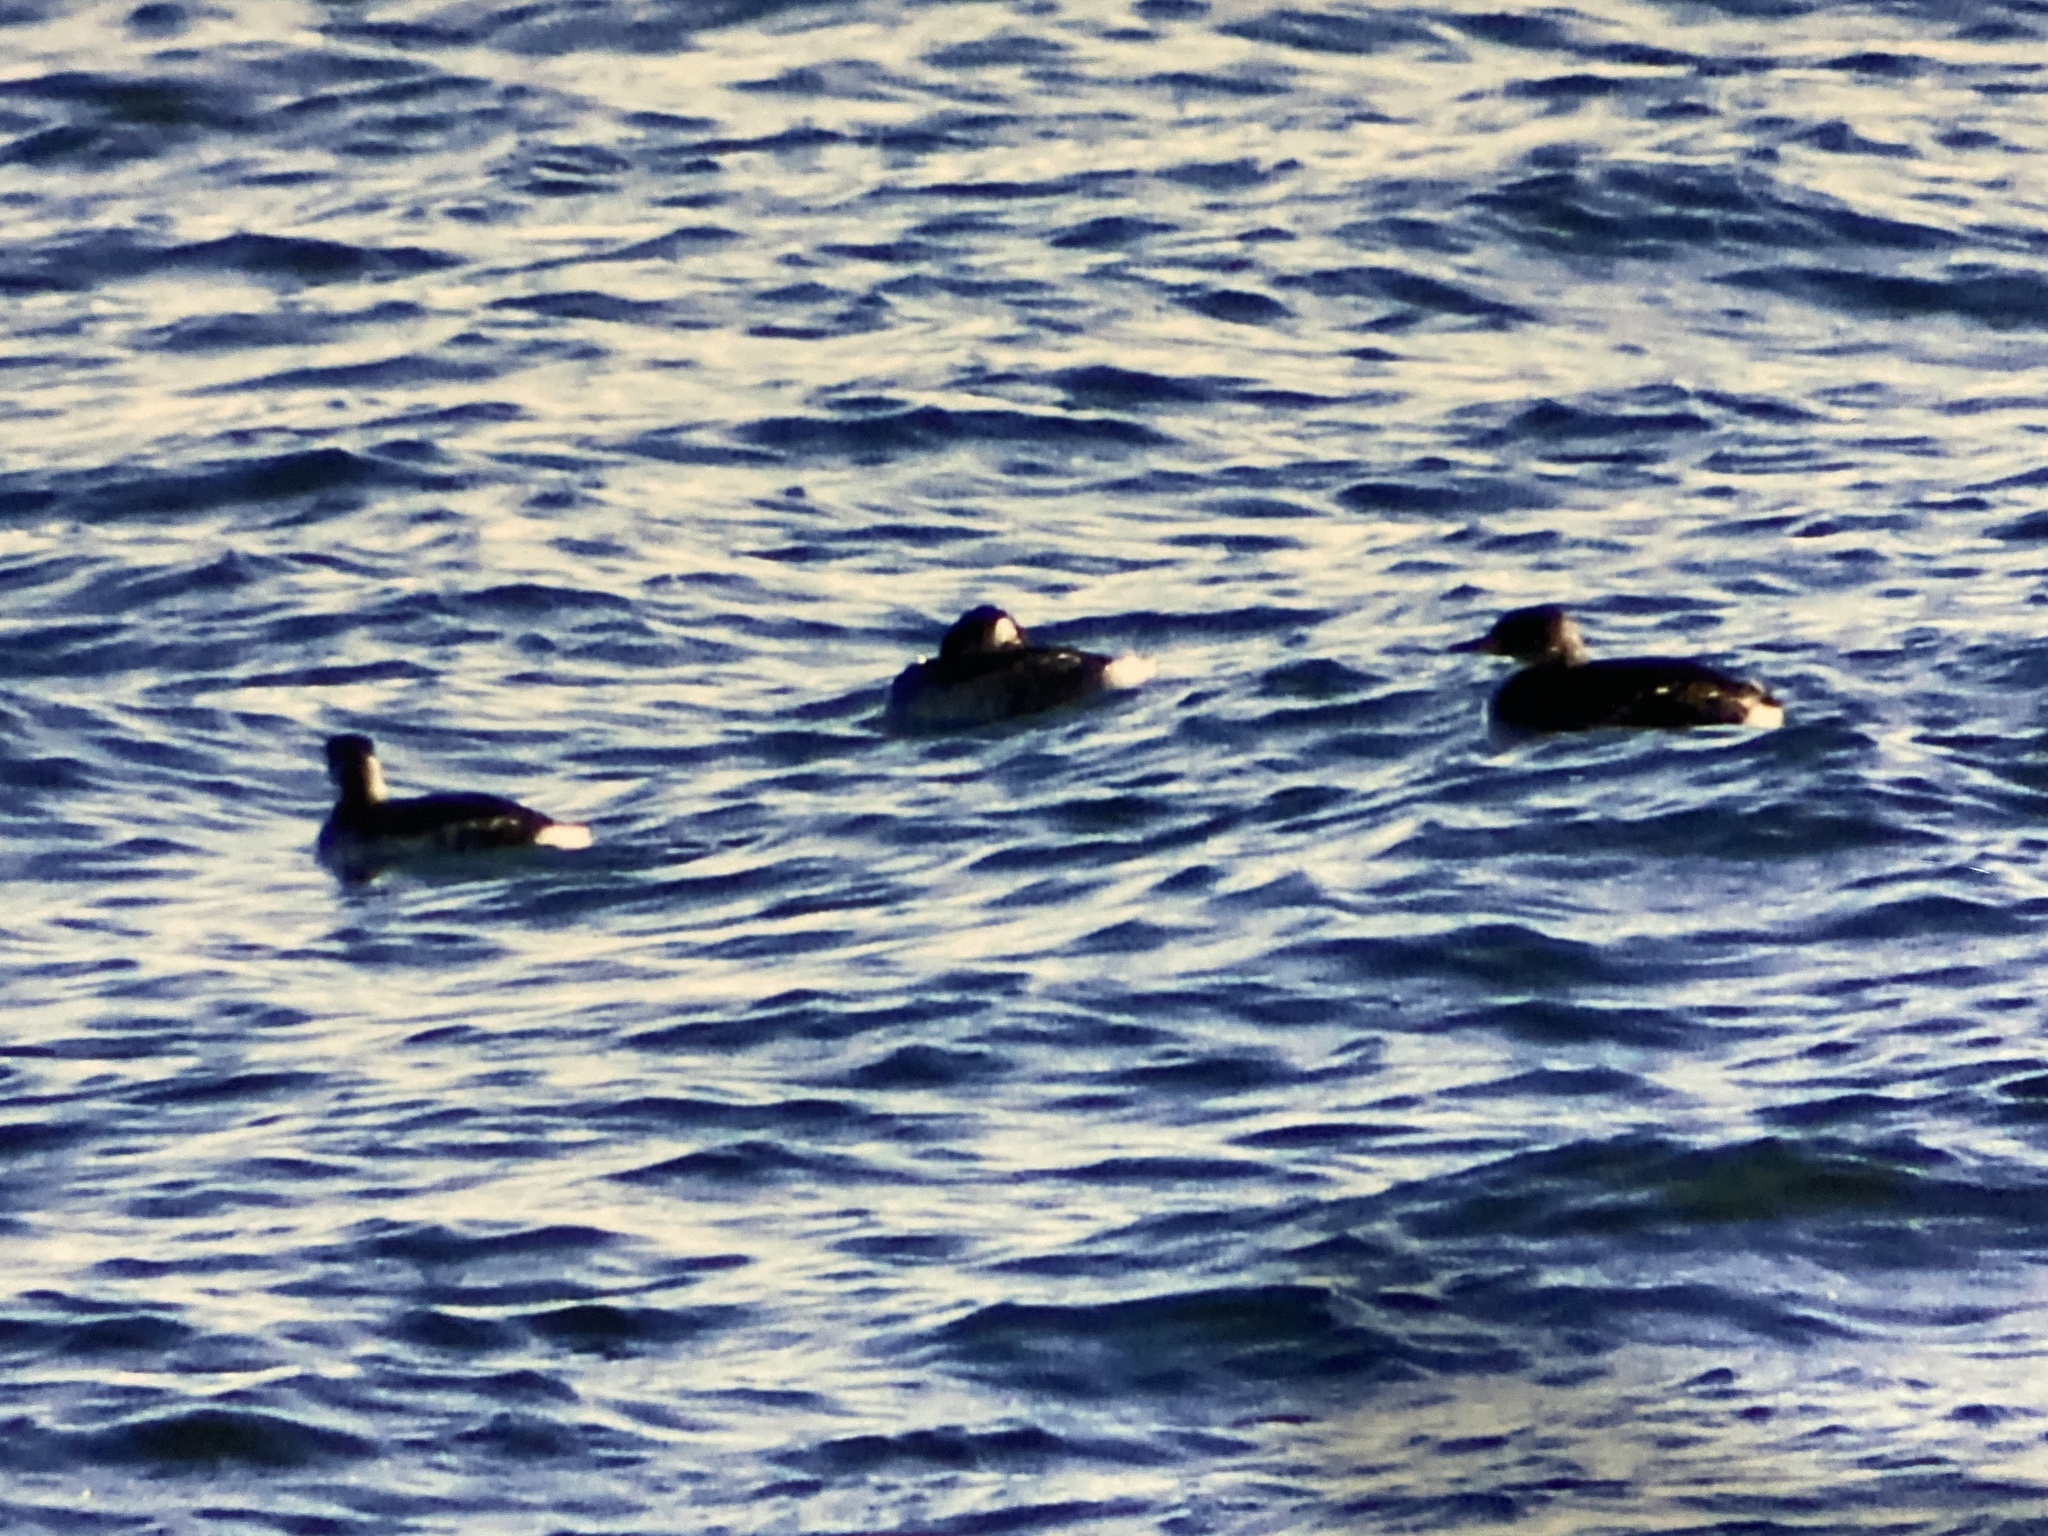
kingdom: Animalia
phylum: Chordata
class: Aves
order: Podicipediformes
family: Podicipedidae
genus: Podiceps
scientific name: Podiceps grisegena
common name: Red-necked grebe
